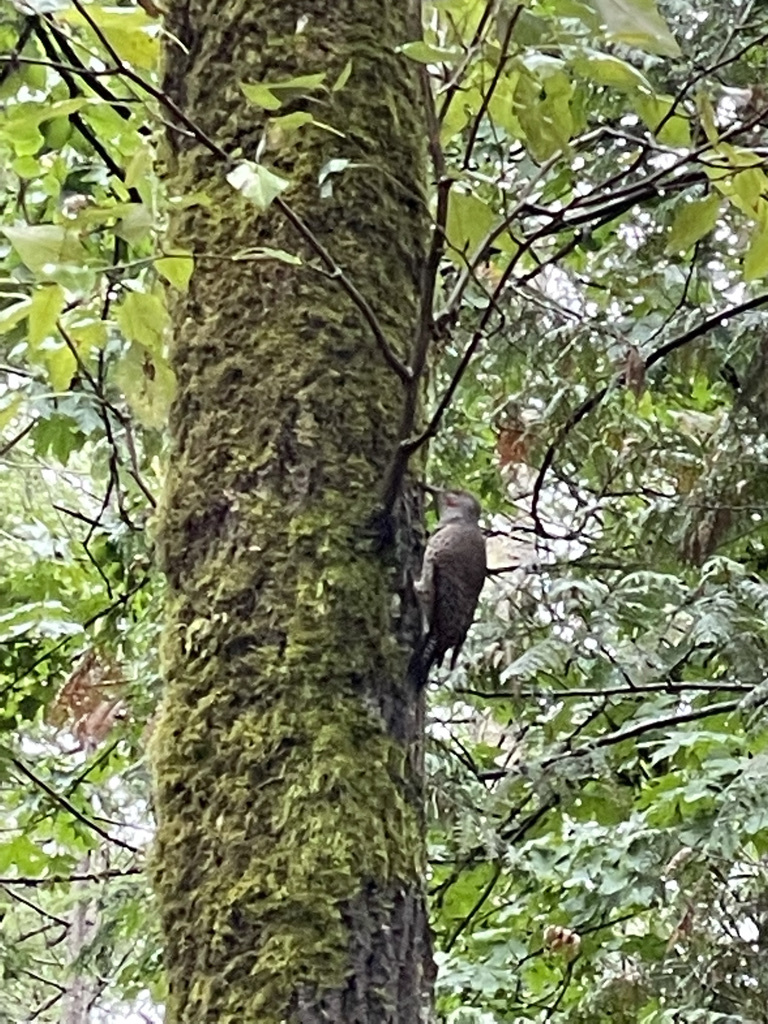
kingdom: Animalia
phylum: Chordata
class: Aves
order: Piciformes
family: Picidae
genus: Colaptes
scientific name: Colaptes auratus
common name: Northern flicker
